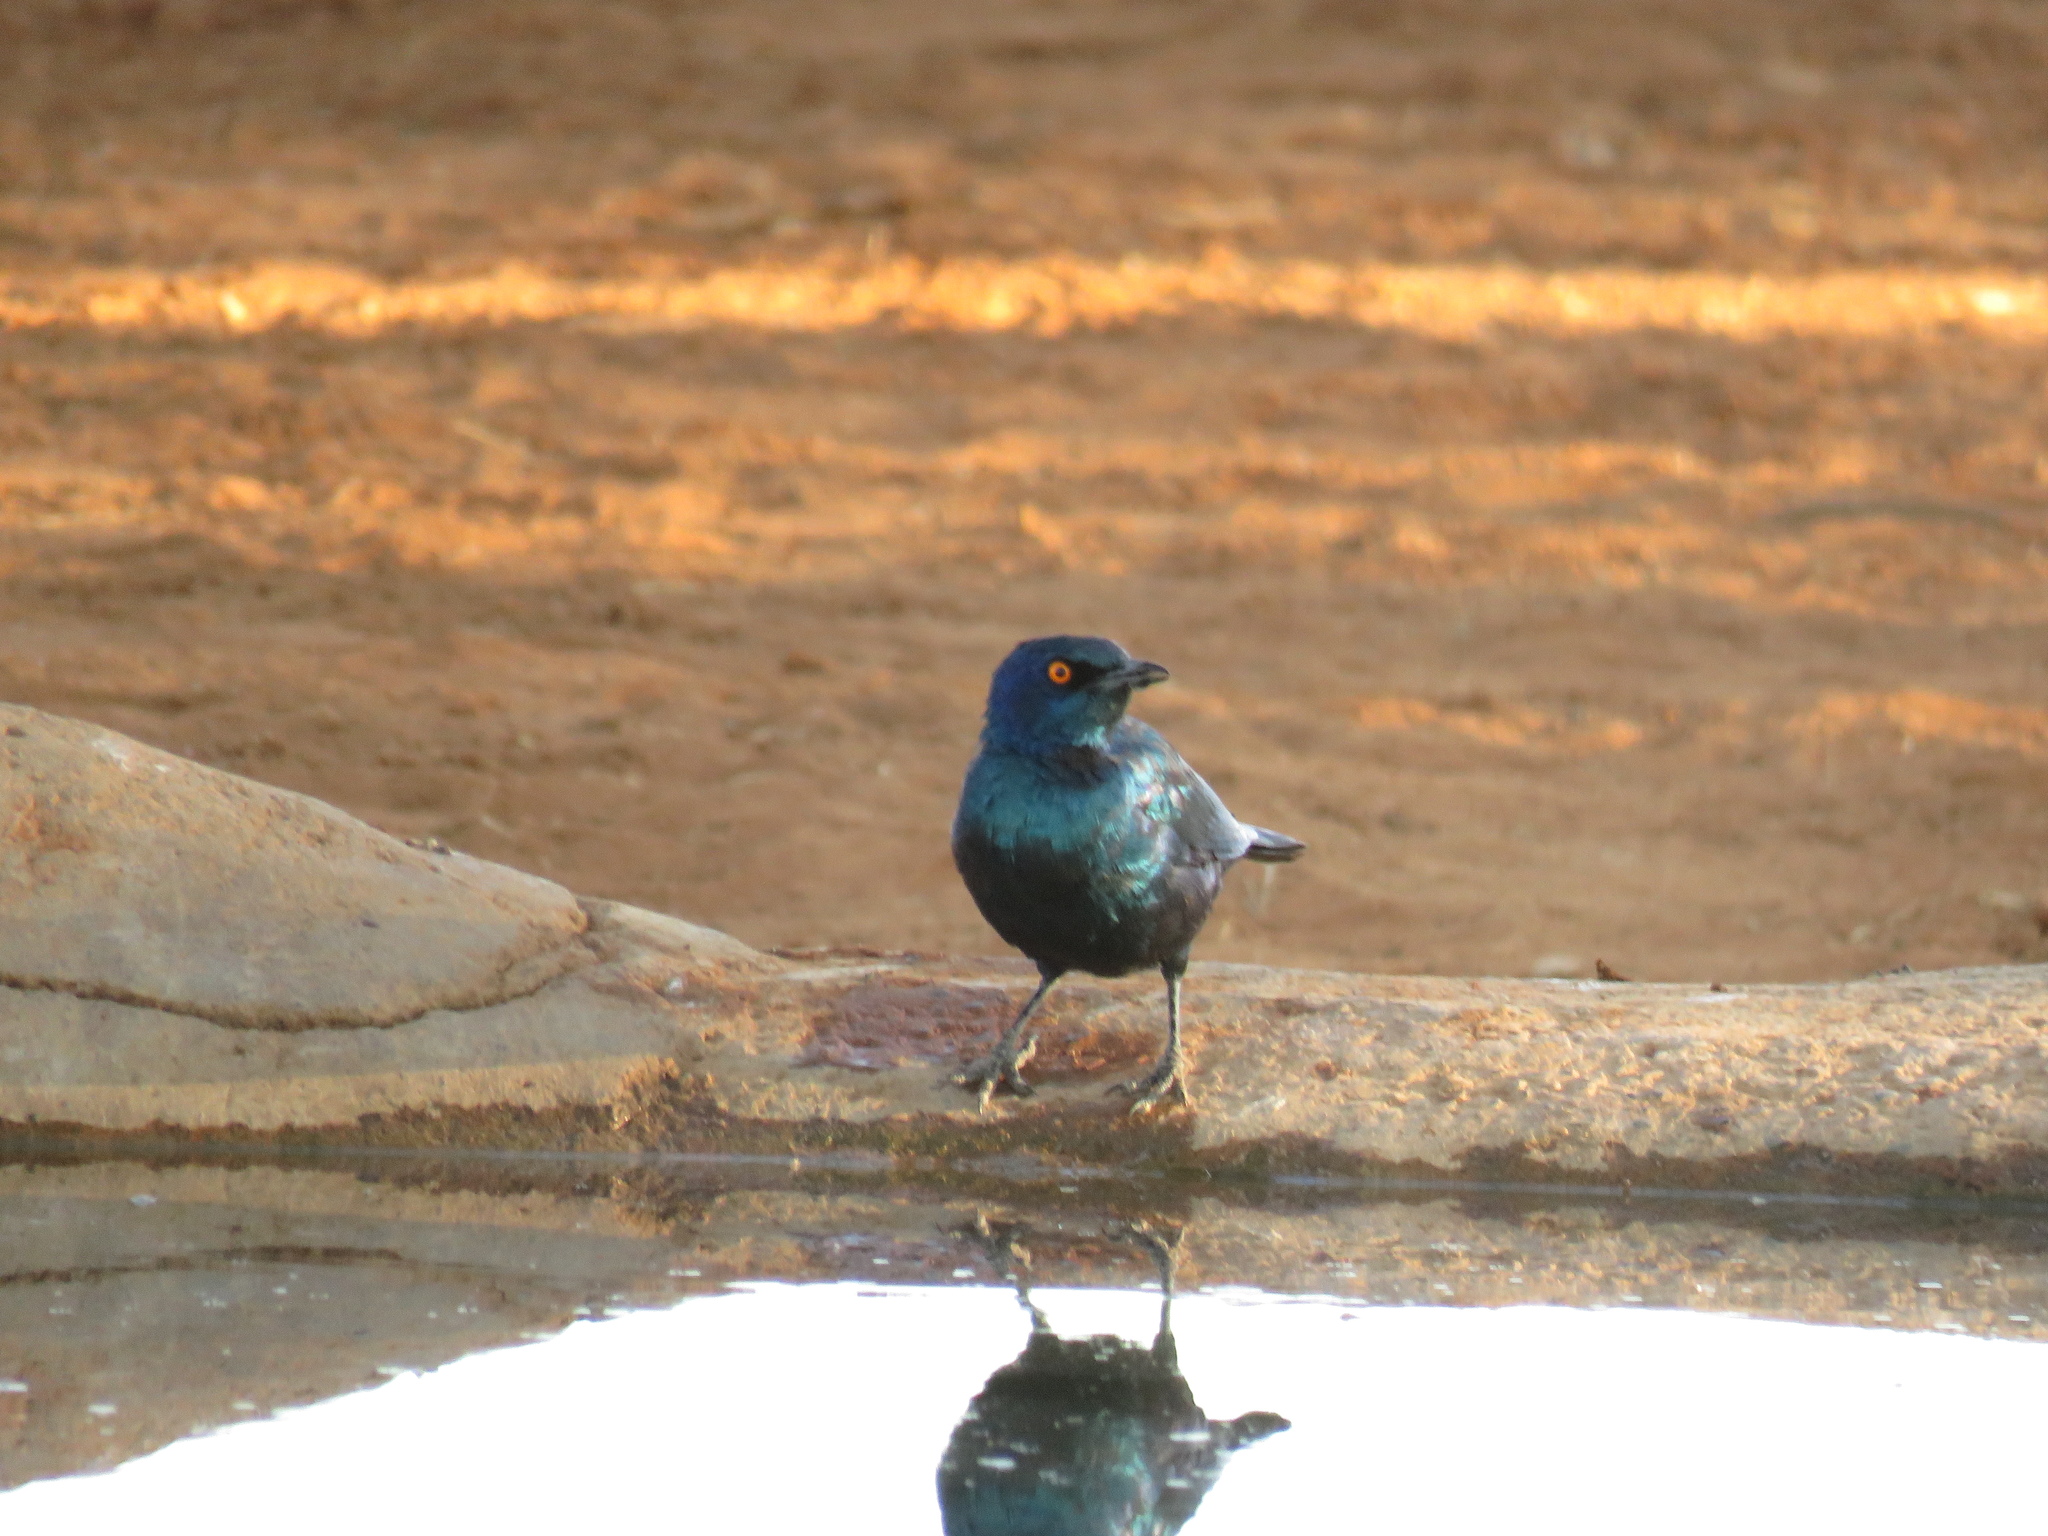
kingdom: Animalia
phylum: Chordata
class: Aves
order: Passeriformes
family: Sturnidae
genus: Lamprotornis
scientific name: Lamprotornis nitens
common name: Cape starling
